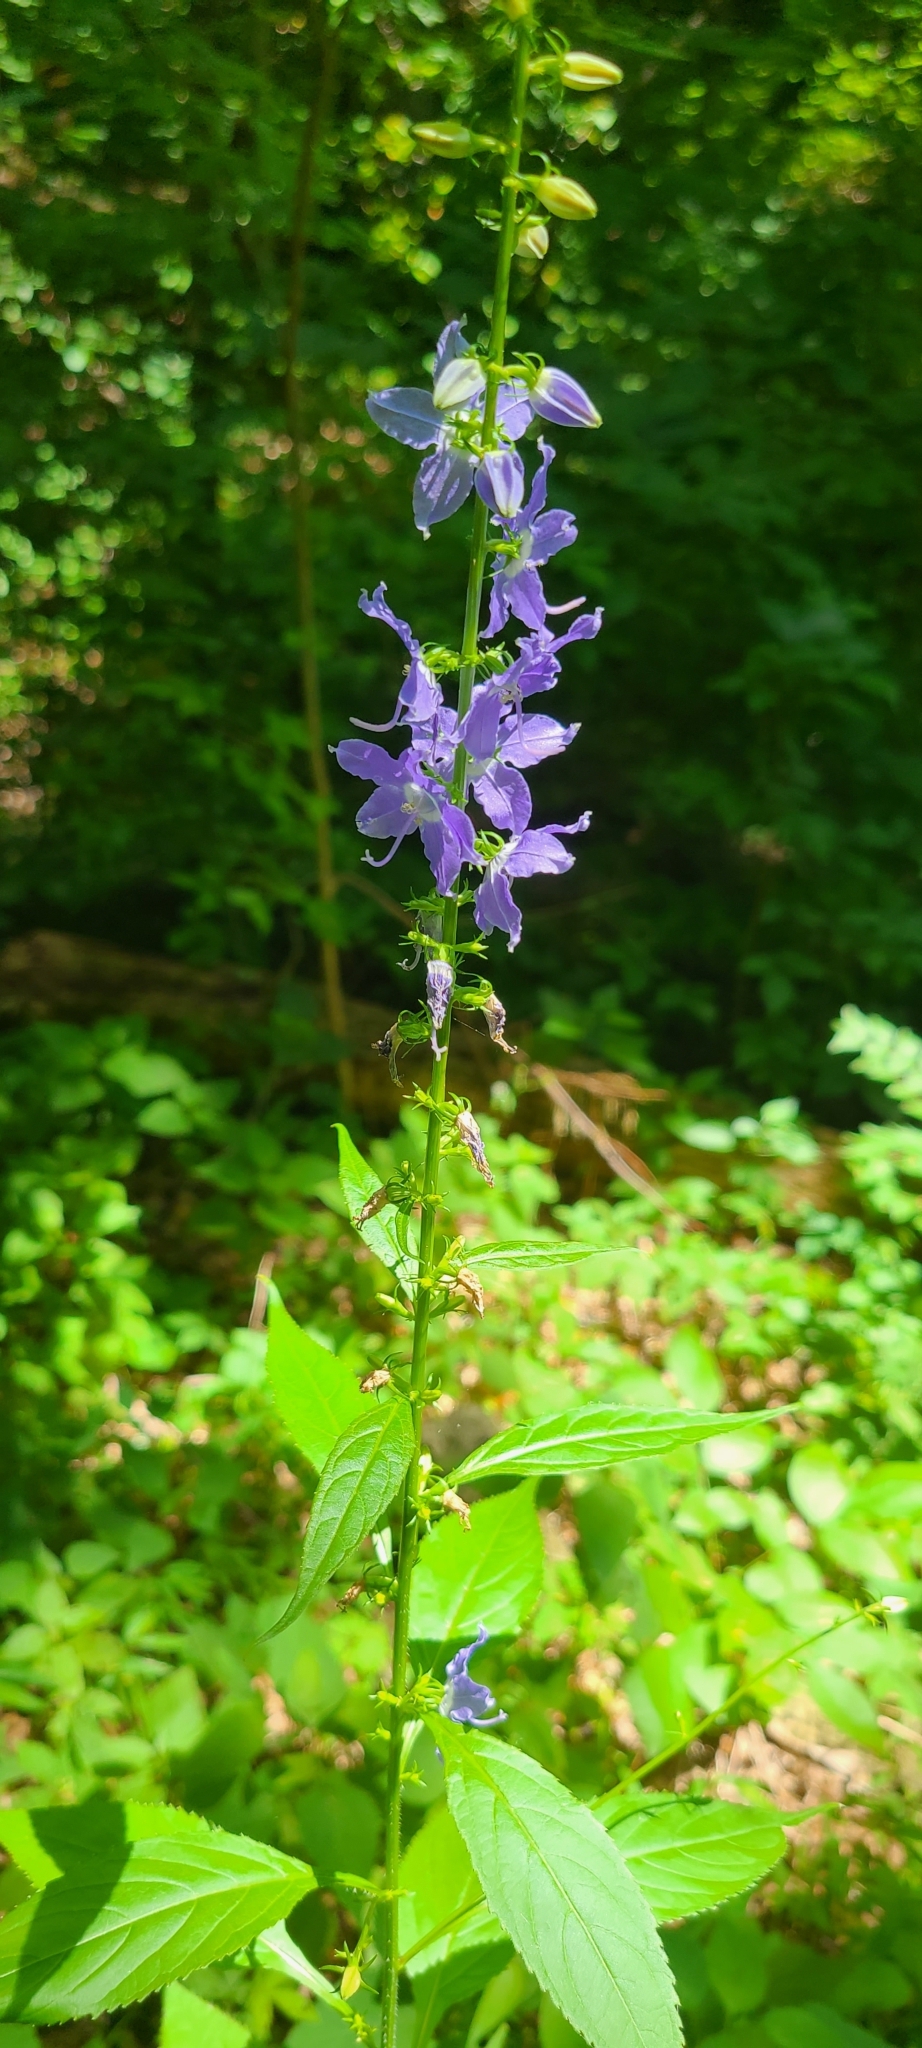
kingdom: Plantae
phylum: Tracheophyta
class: Magnoliopsida
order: Asterales
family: Campanulaceae
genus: Campanulastrum
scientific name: Campanulastrum americanum
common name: American bellflower
